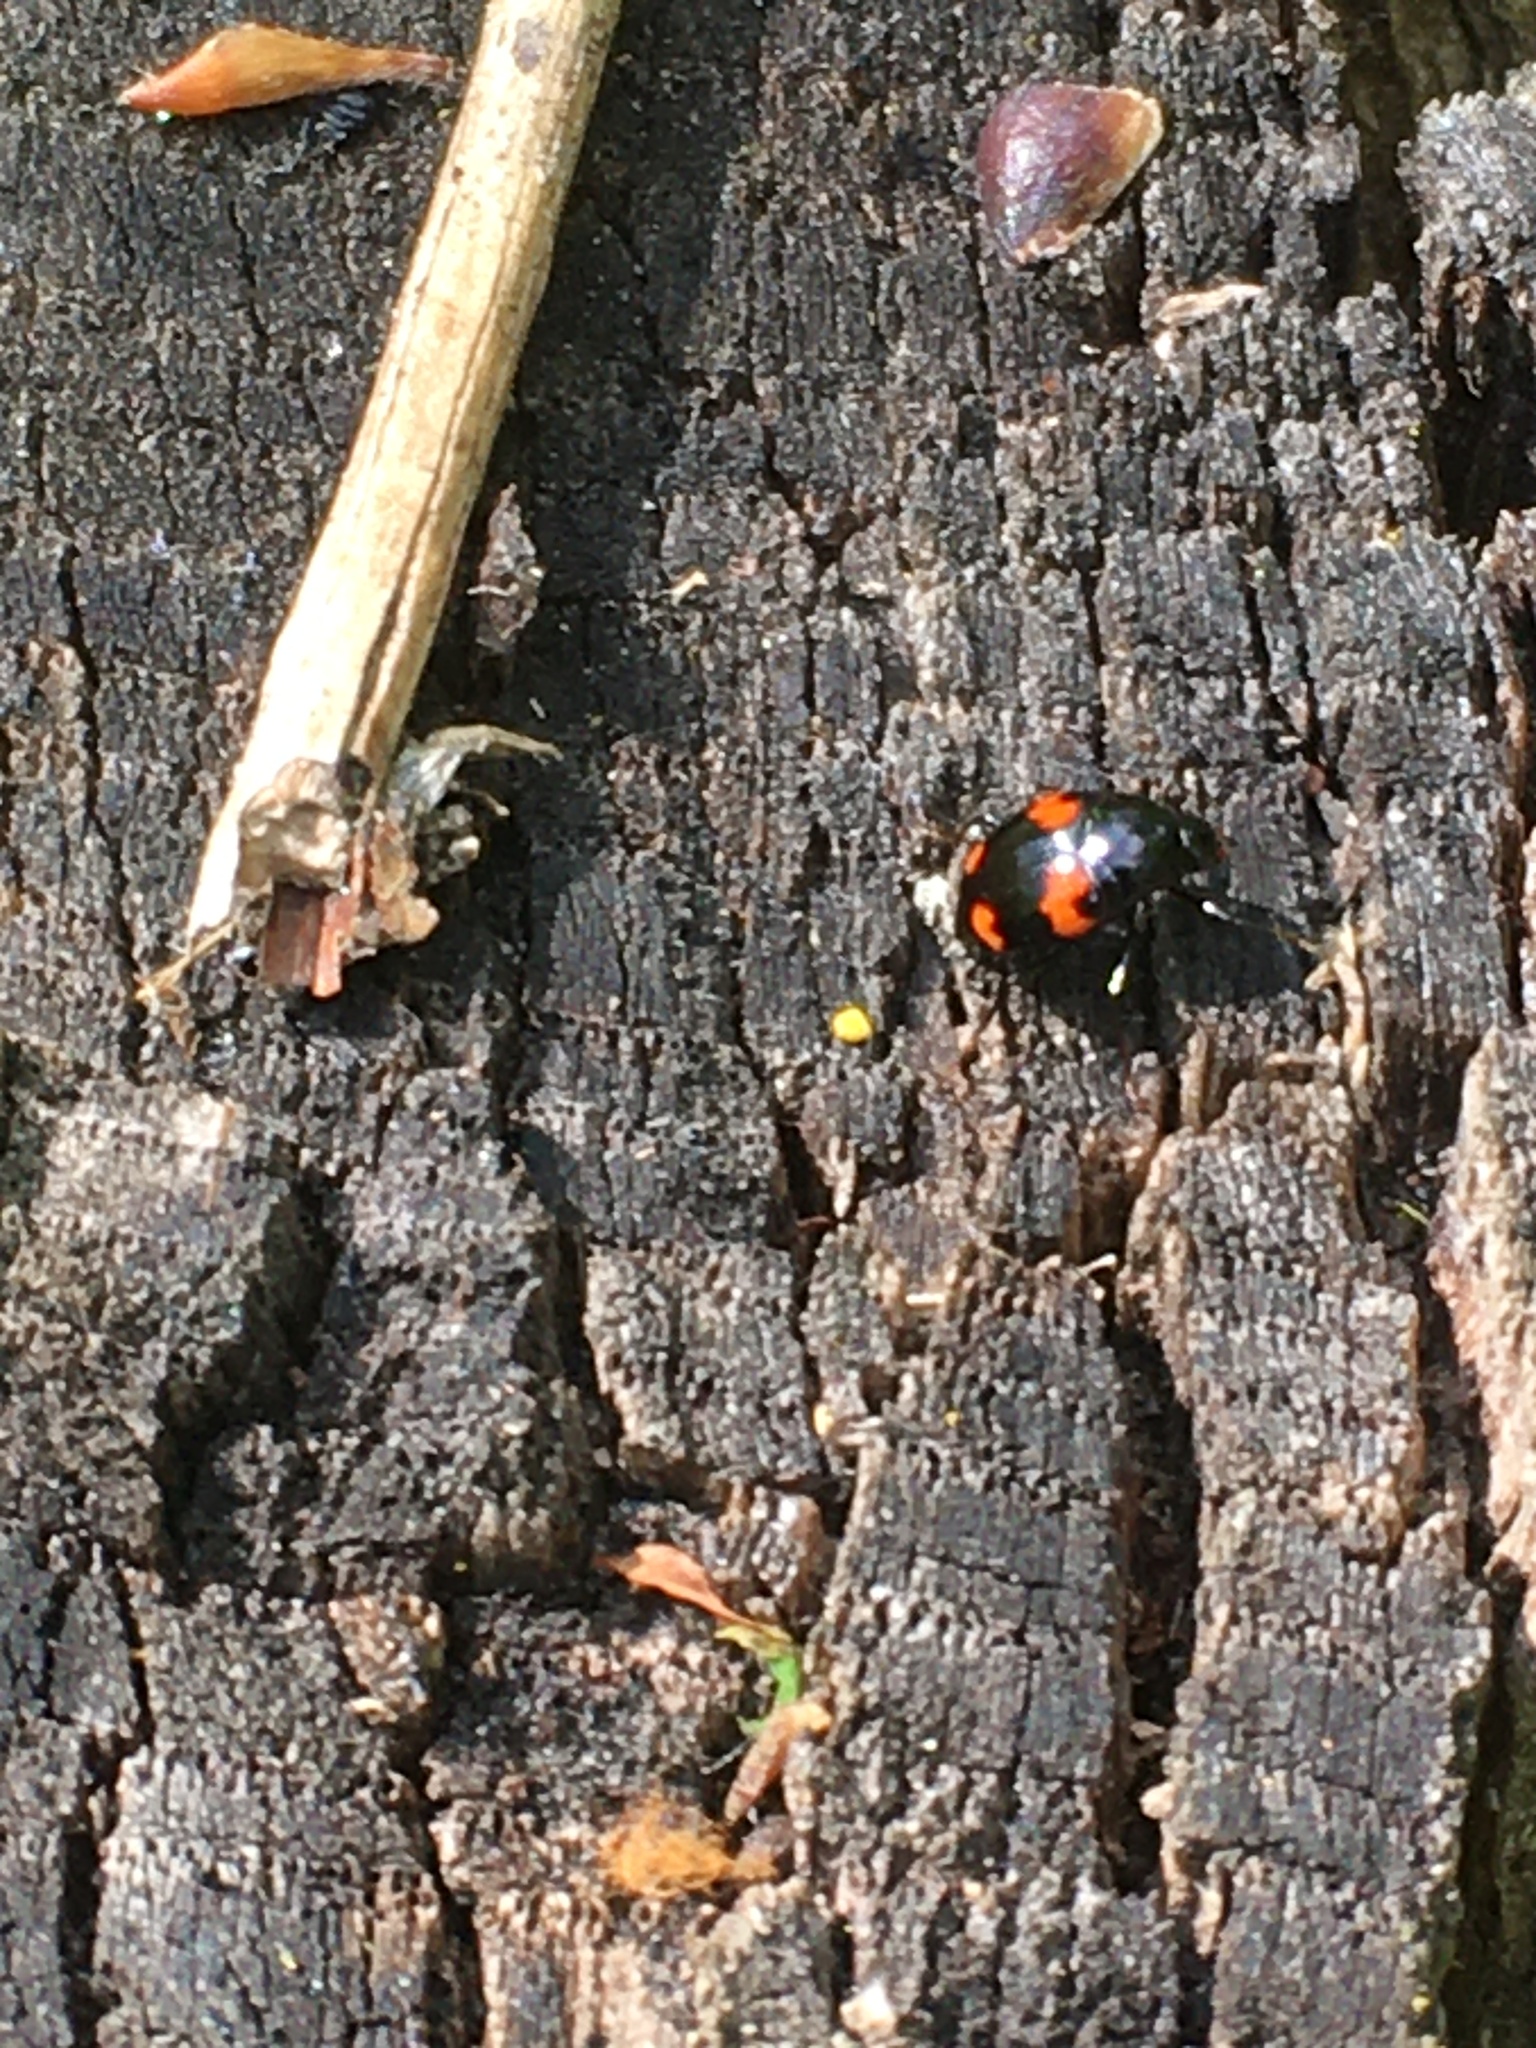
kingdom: Animalia
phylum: Arthropoda
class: Insecta
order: Coleoptera
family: Staphylinidae
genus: Scaphidium
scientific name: Scaphidium quadrimaculatum
